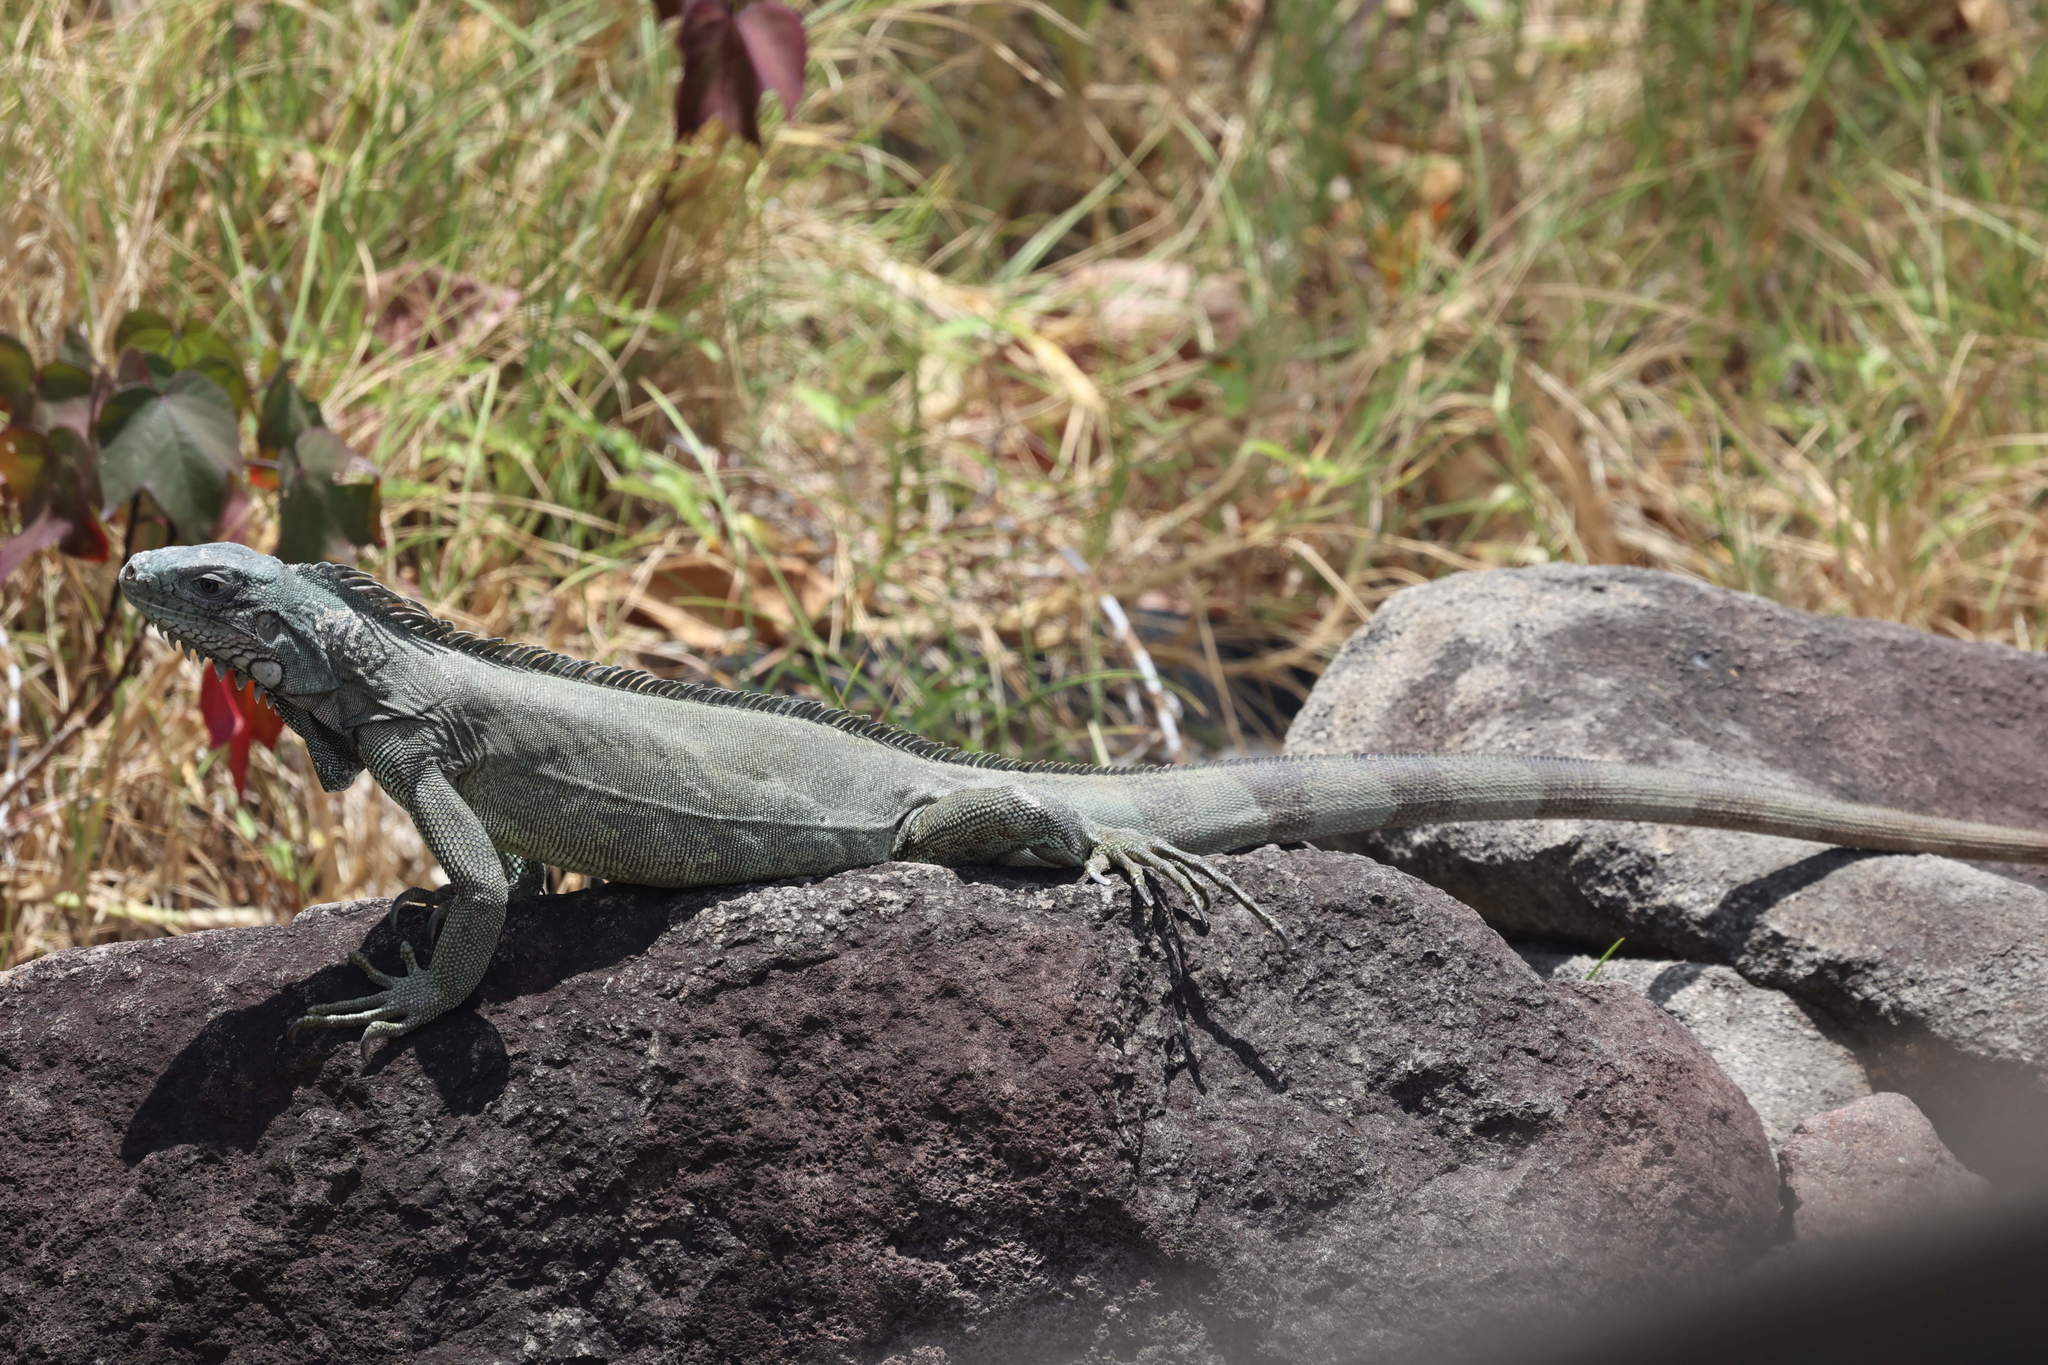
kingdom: Animalia
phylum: Chordata
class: Squamata
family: Iguanidae
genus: Iguana
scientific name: Iguana iguana
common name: Green iguana
